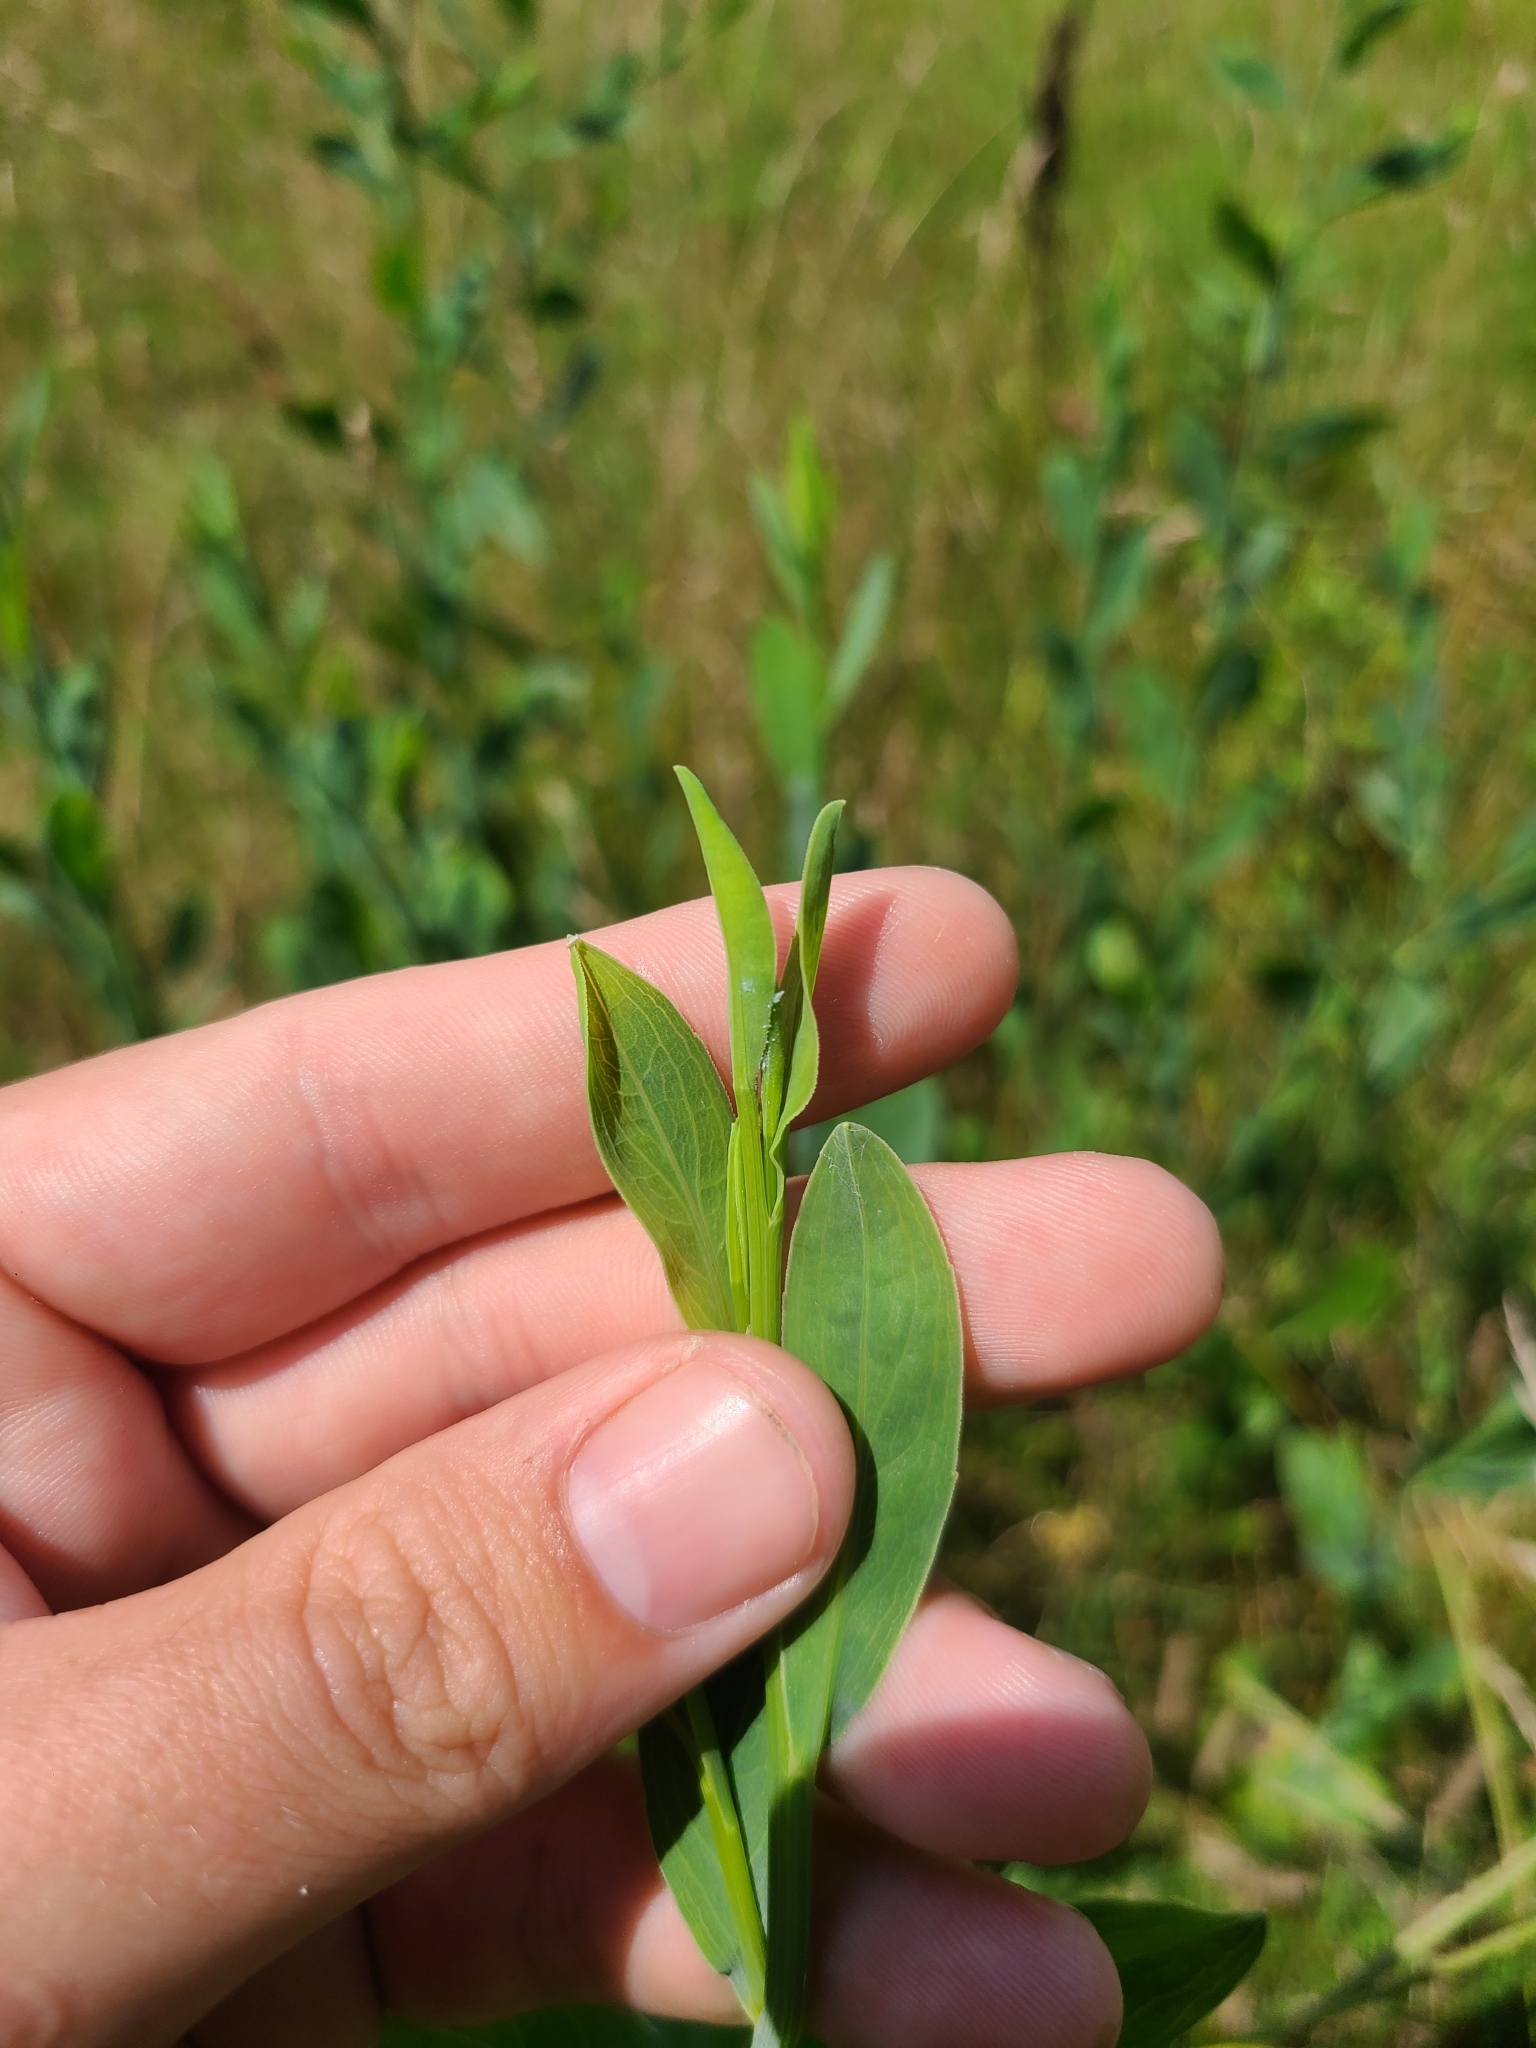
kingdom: Plantae
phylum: Tracheophyta
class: Magnoliopsida
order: Asterales
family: Asteraceae
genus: Boltonia
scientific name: Boltonia asteroides
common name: False chamomile
